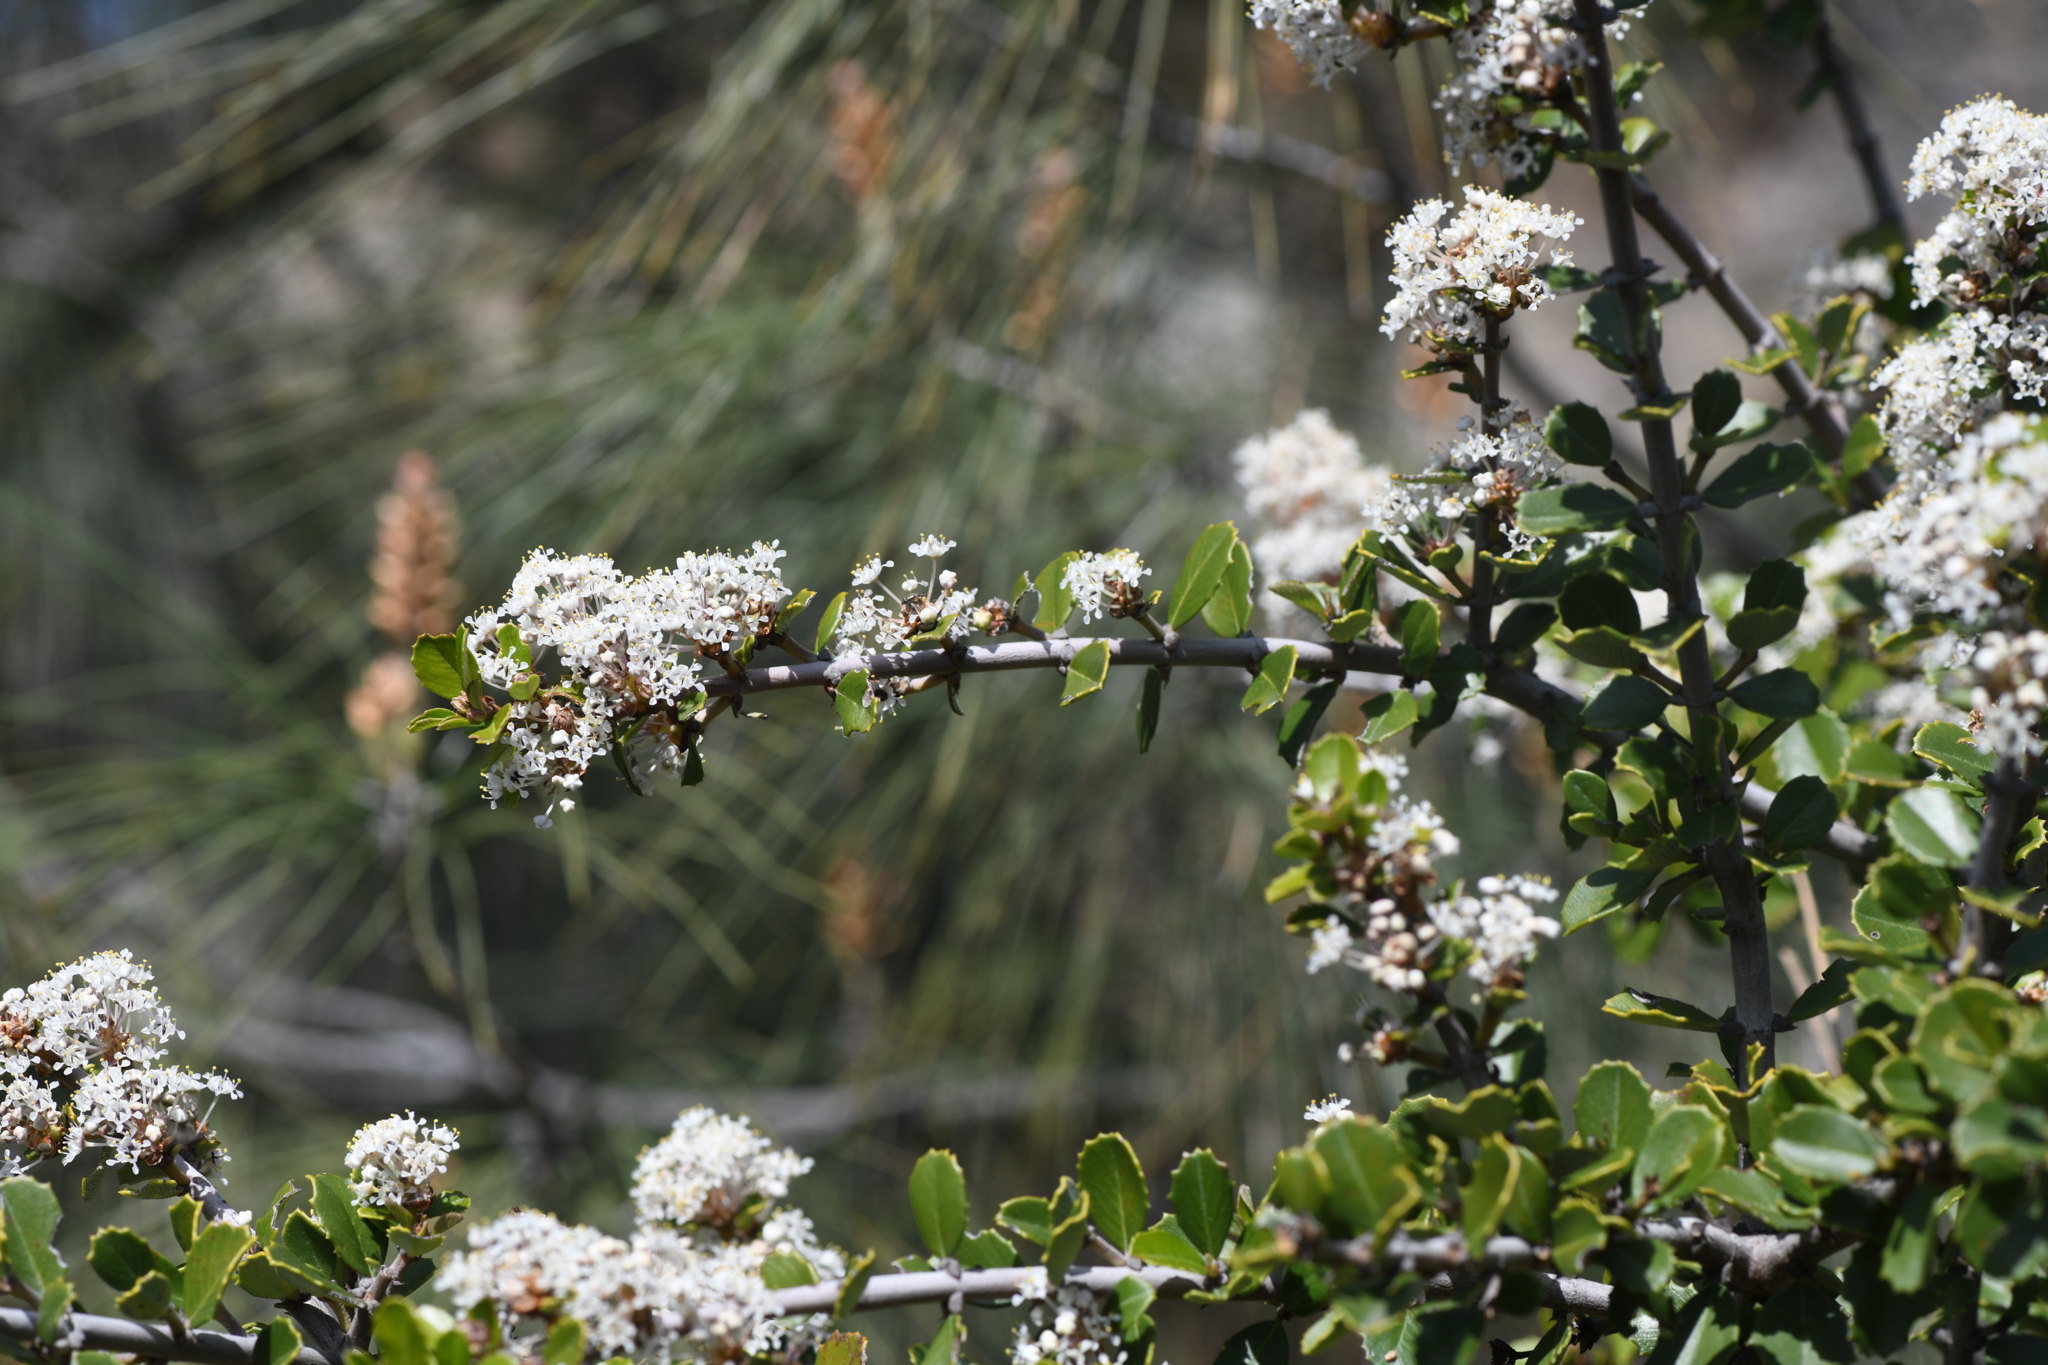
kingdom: Plantae
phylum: Tracheophyta
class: Magnoliopsida
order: Rosales
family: Rhamnaceae
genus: Ceanothus
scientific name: Ceanothus ferrisiae
